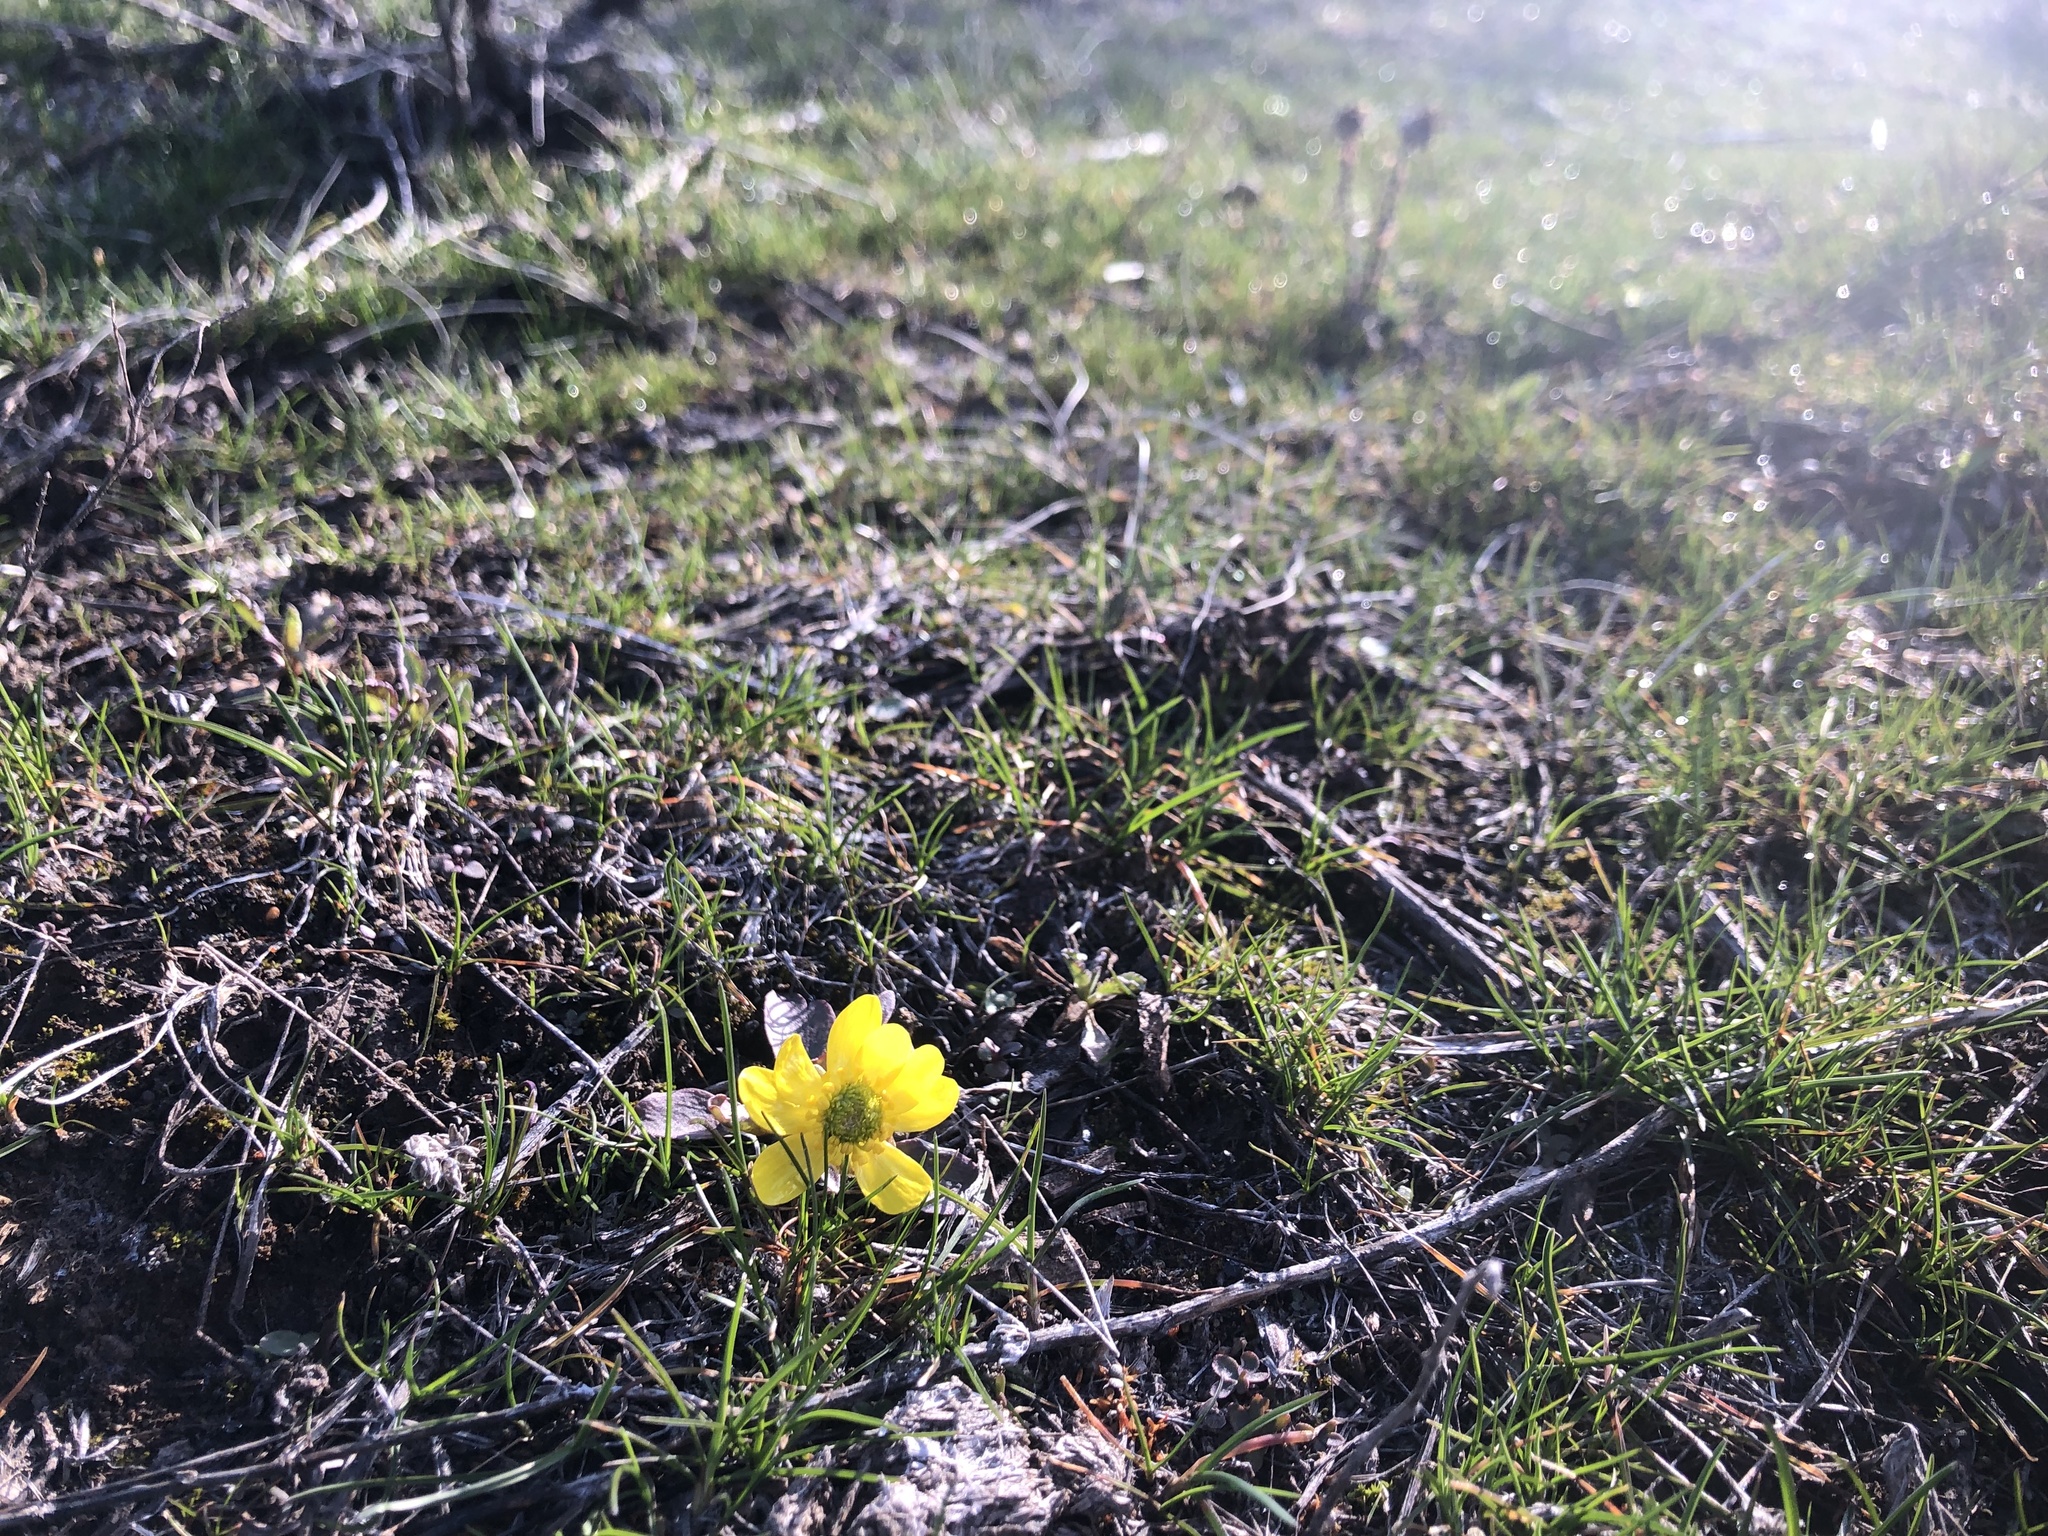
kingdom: Plantae
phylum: Tracheophyta
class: Magnoliopsida
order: Ranunculales
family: Ranunculaceae
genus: Ranunculus
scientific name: Ranunculus glaberrimus
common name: Sagebrush buttercup
